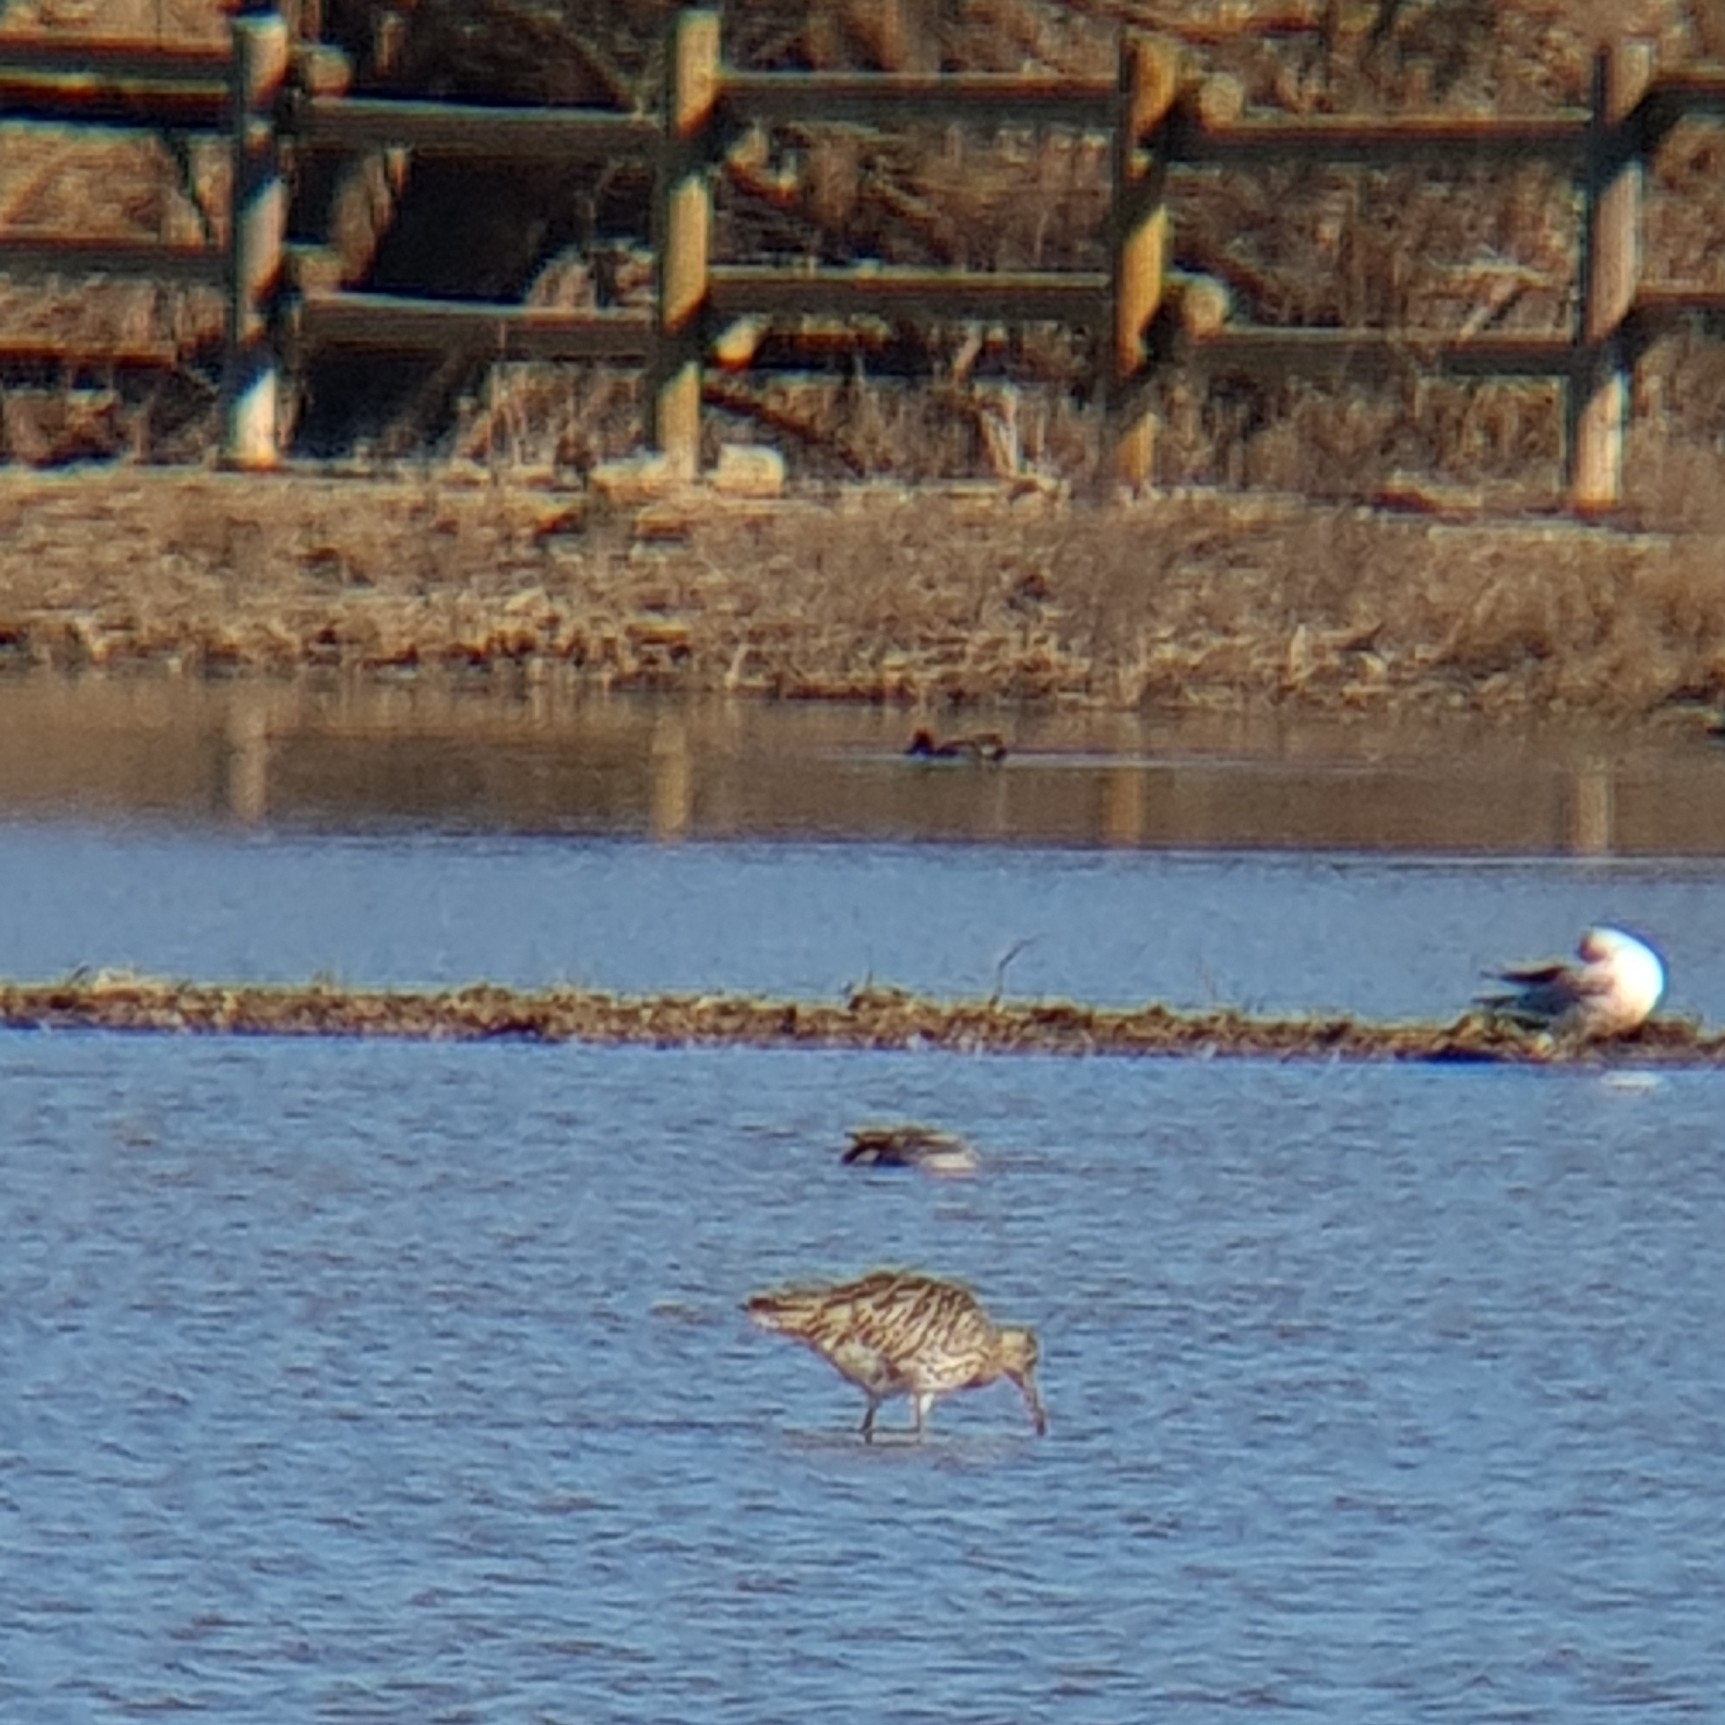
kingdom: Animalia
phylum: Chordata
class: Aves
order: Charadriiformes
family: Scolopacidae
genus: Numenius
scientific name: Numenius arquata
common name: Eurasian curlew
